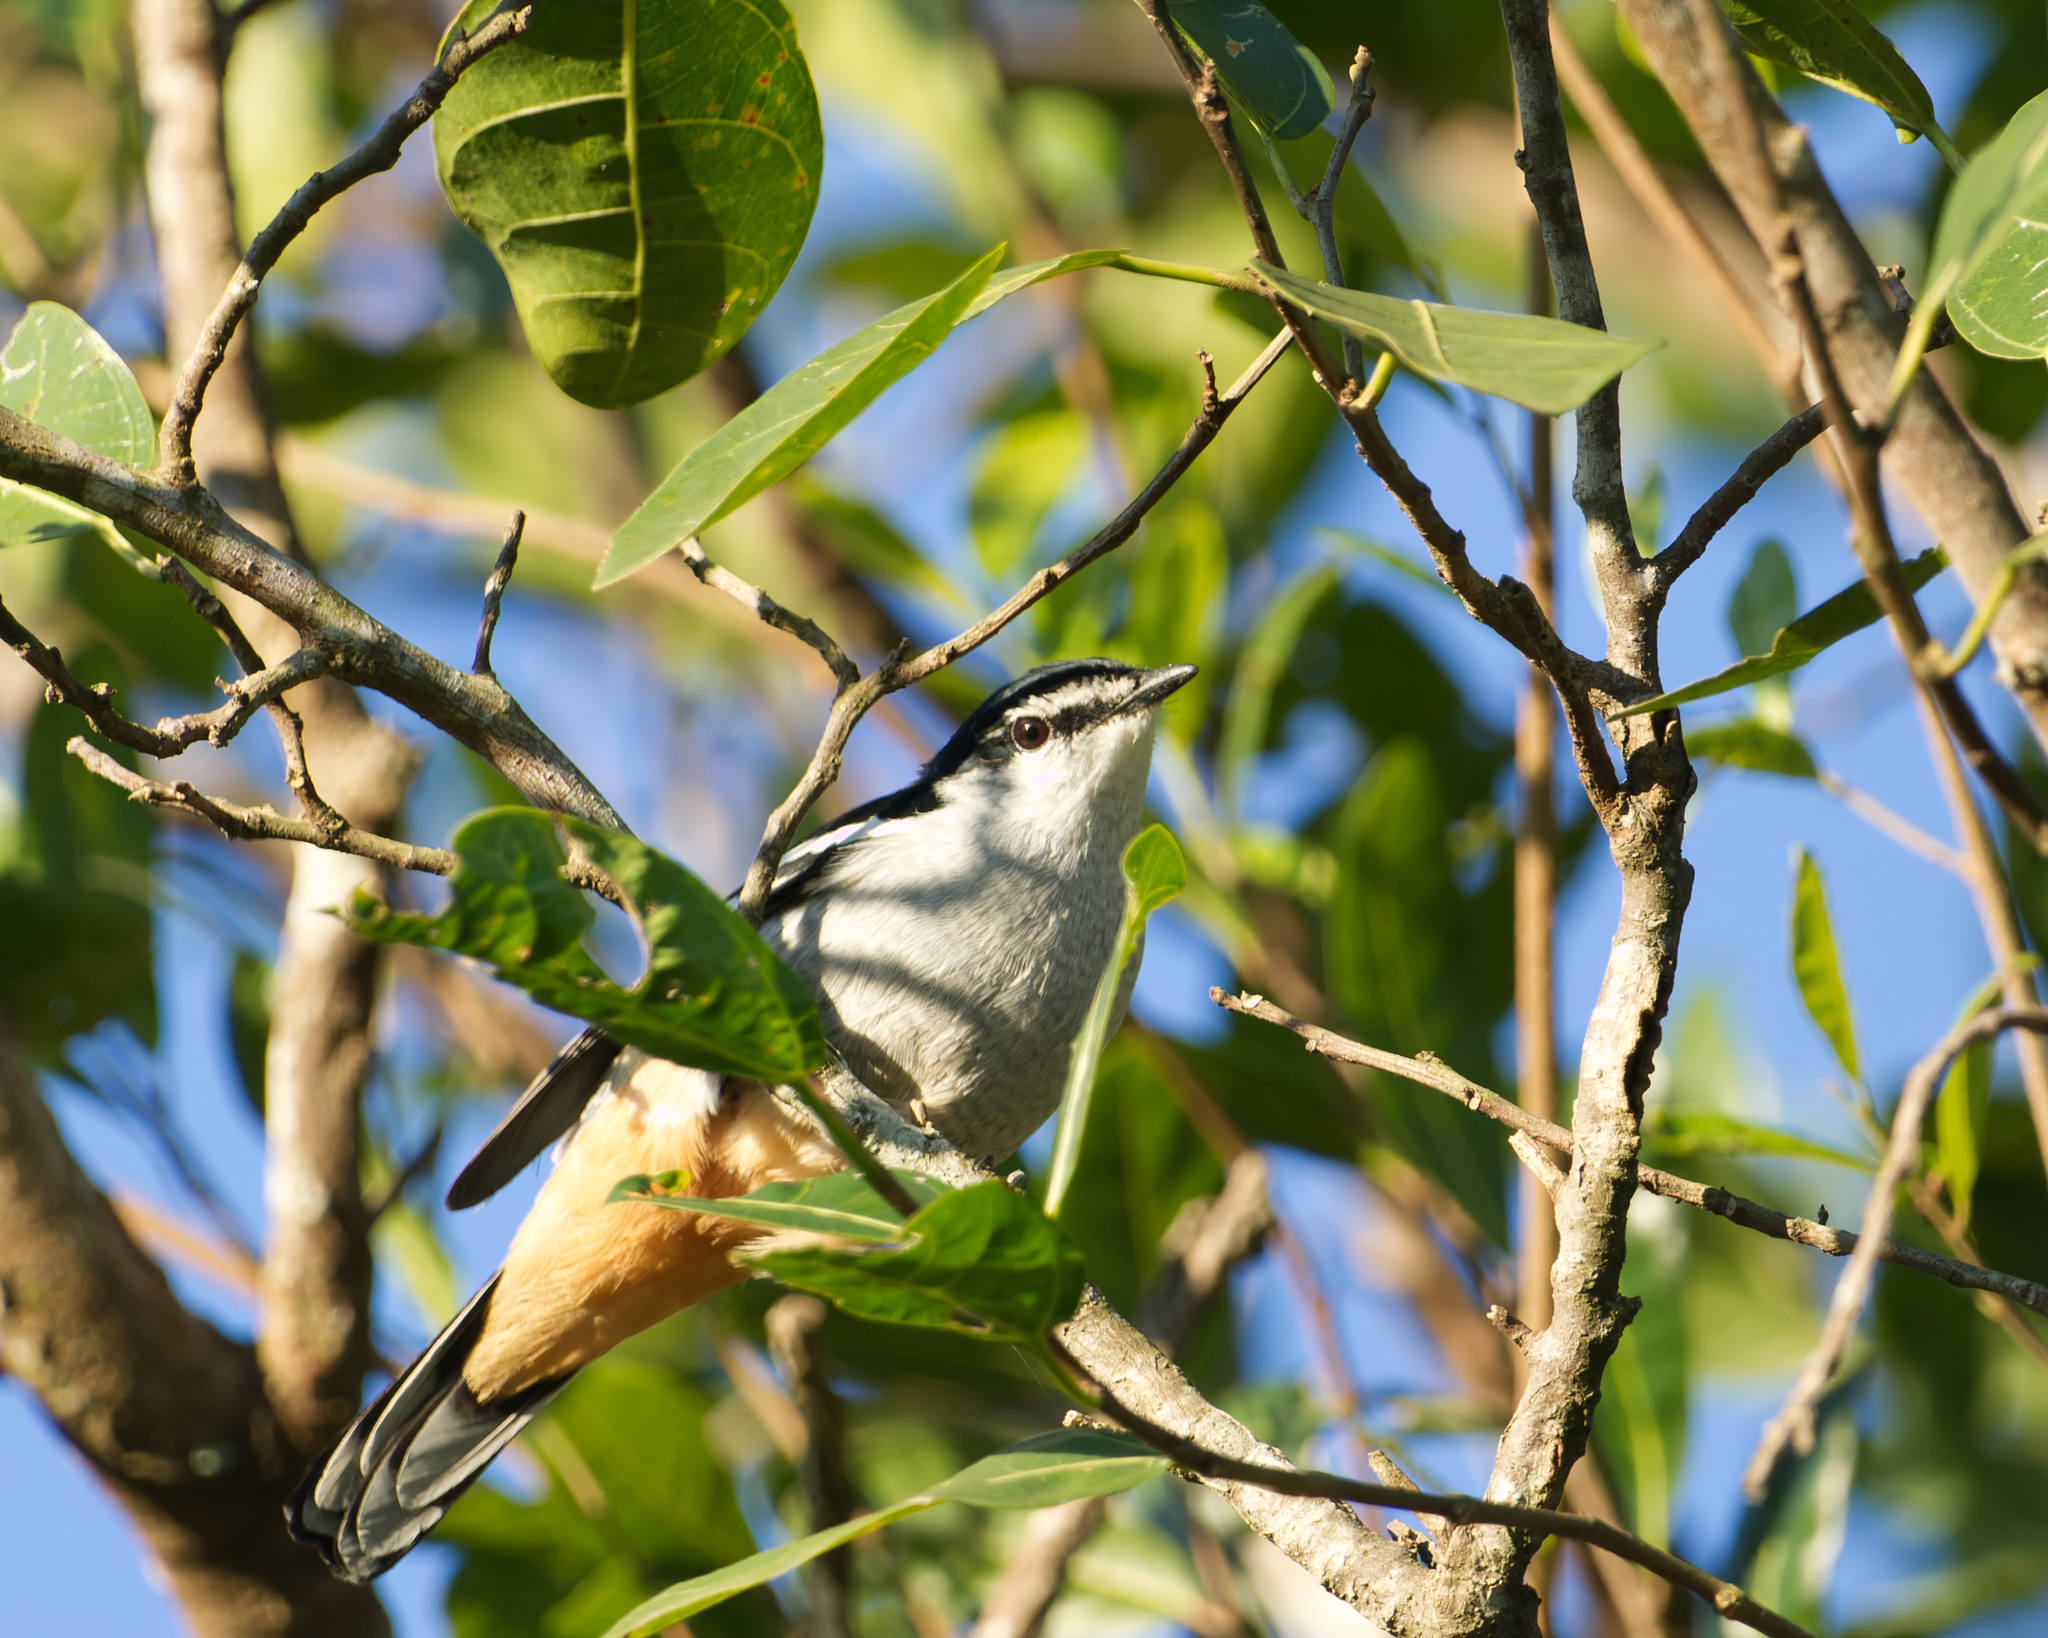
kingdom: Animalia
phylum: Chordata
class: Aves
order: Passeriformes
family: Campephagidae
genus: Lalage
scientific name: Lalage leucomela
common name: Varied triller
